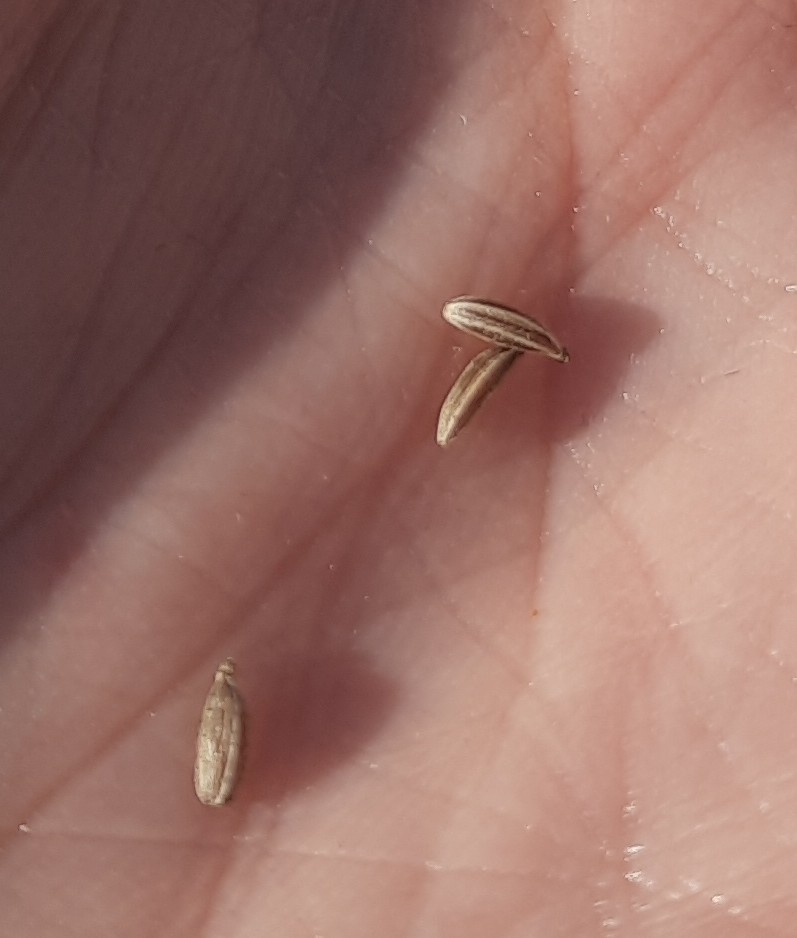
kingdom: Plantae
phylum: Tracheophyta
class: Magnoliopsida
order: Apiales
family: Apiaceae
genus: Carum
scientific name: Carum carvi
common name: Caraway
